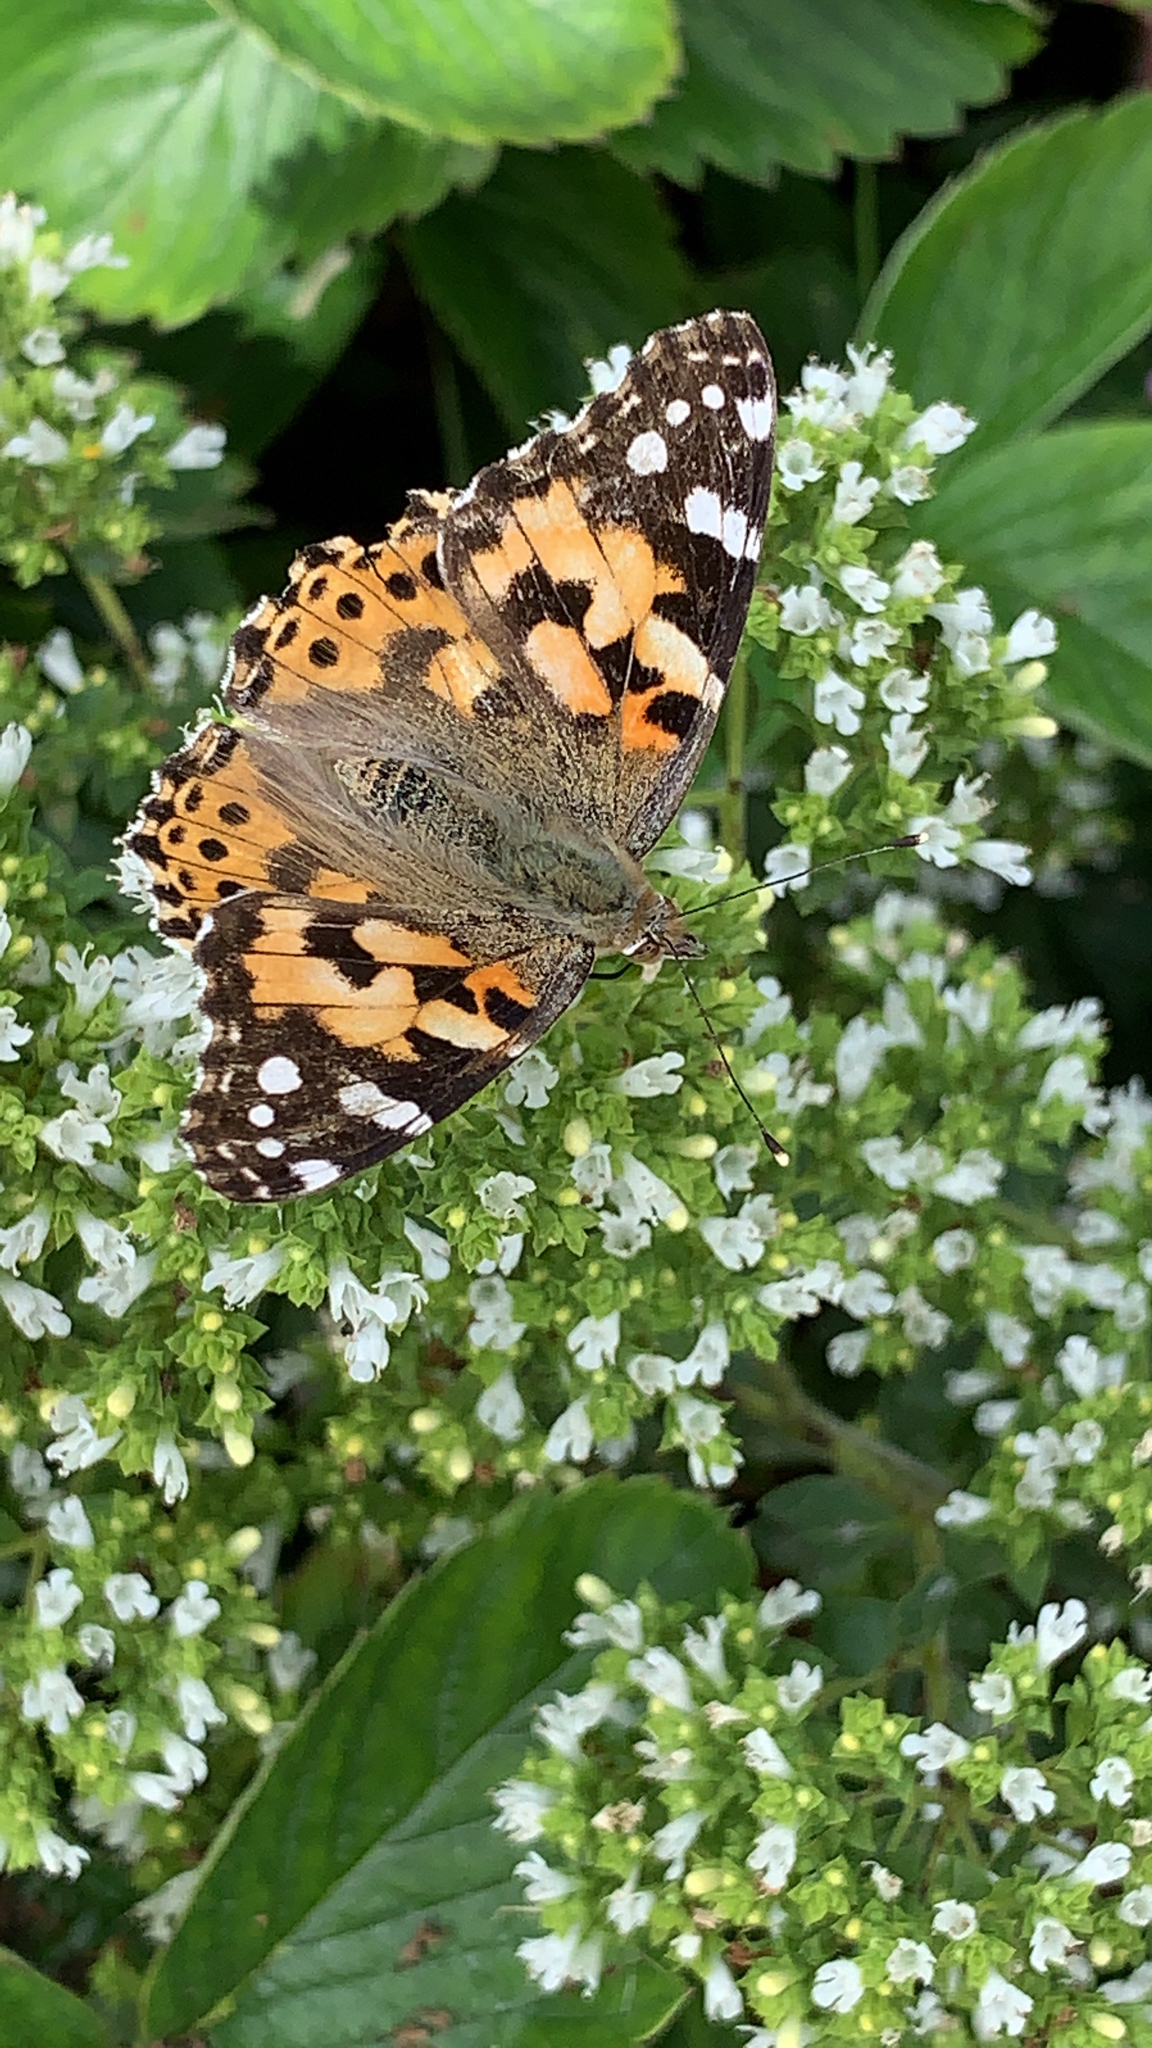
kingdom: Animalia
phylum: Arthropoda
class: Insecta
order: Lepidoptera
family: Nymphalidae
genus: Vanessa
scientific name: Vanessa cardui
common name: Painted lady
